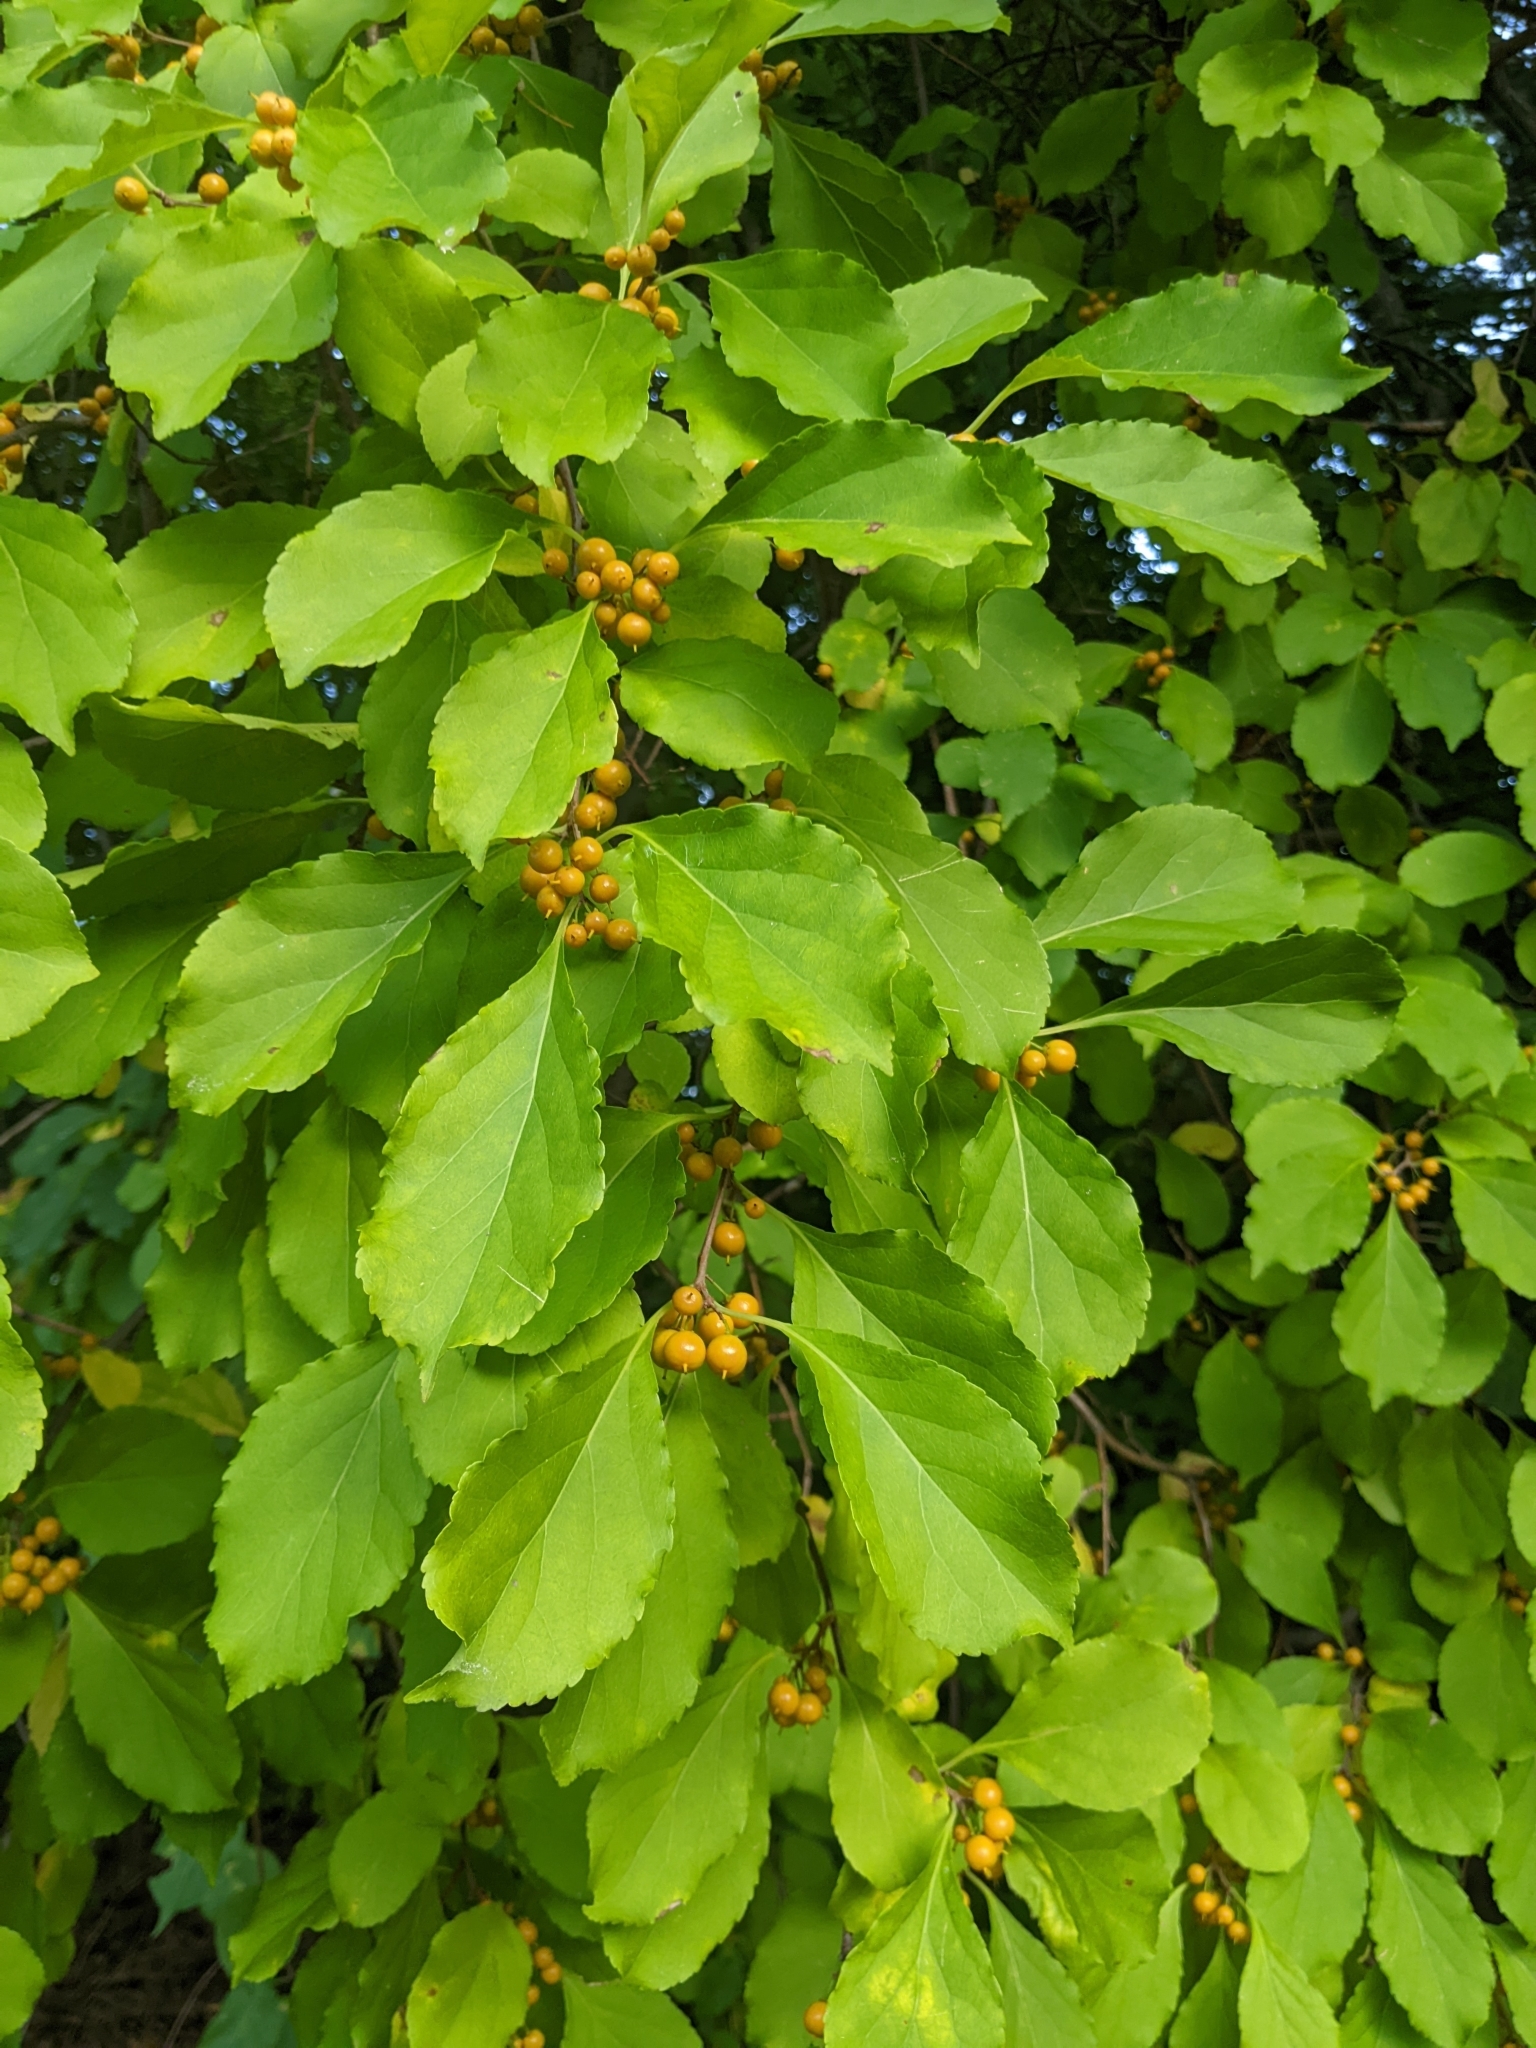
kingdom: Plantae
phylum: Tracheophyta
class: Magnoliopsida
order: Celastrales
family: Celastraceae
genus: Celastrus
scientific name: Celastrus orbiculatus
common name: Oriental bittersweet
